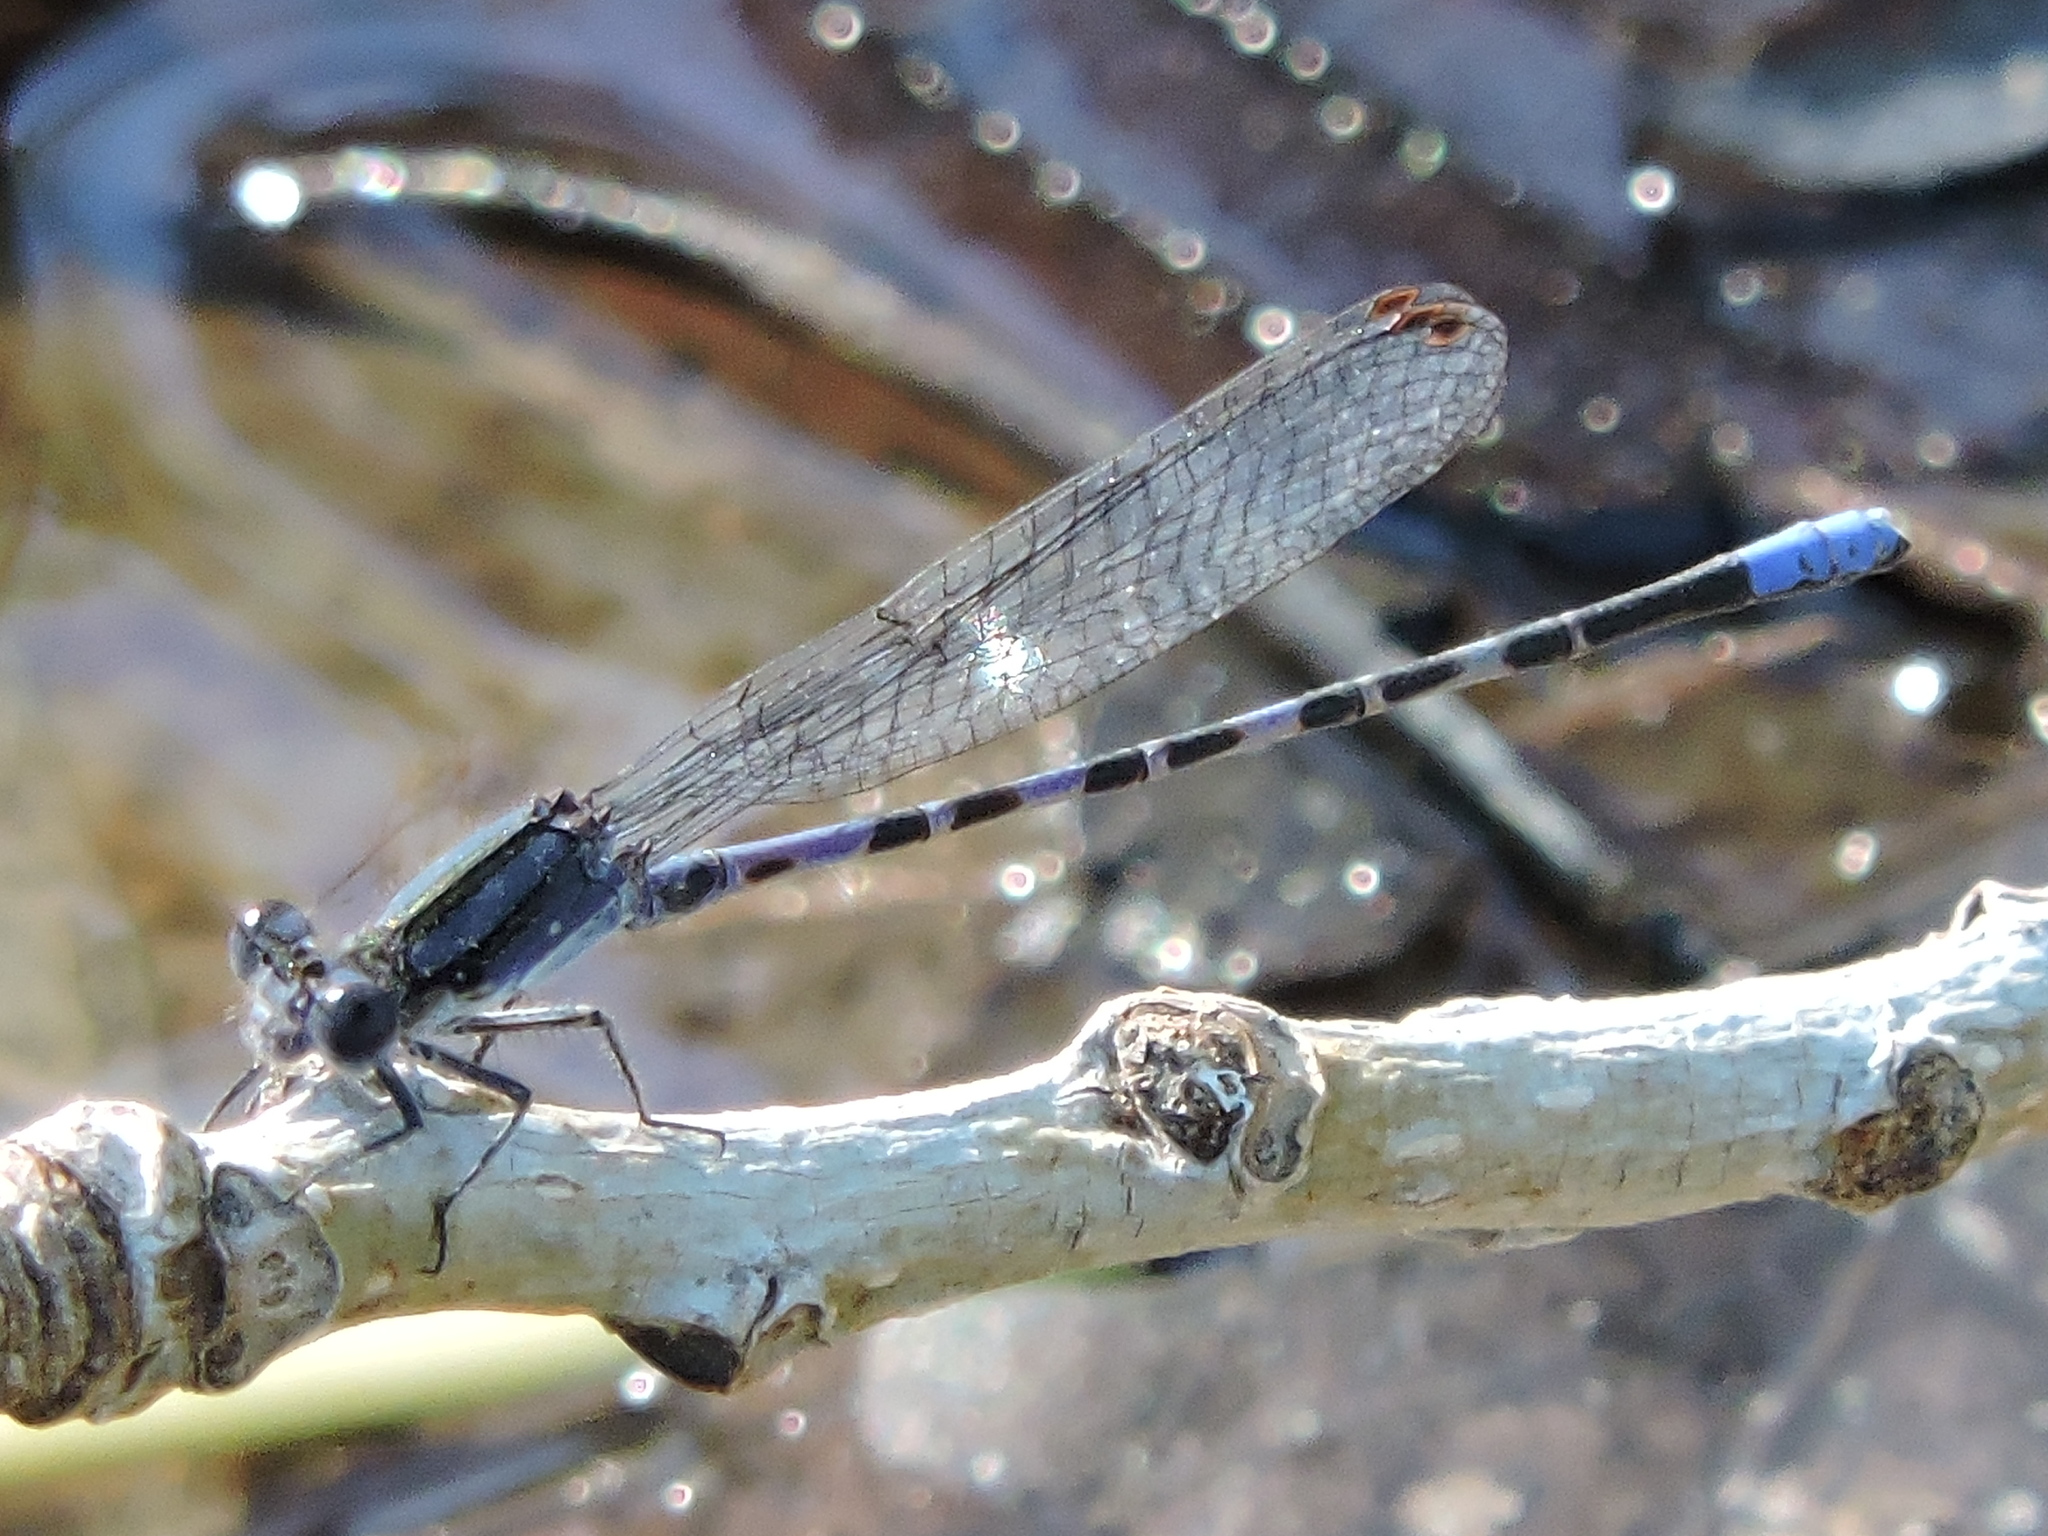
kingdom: Animalia
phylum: Arthropoda
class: Insecta
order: Odonata
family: Coenagrionidae
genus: Argia
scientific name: Argia immunda
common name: Kiowa dancer
